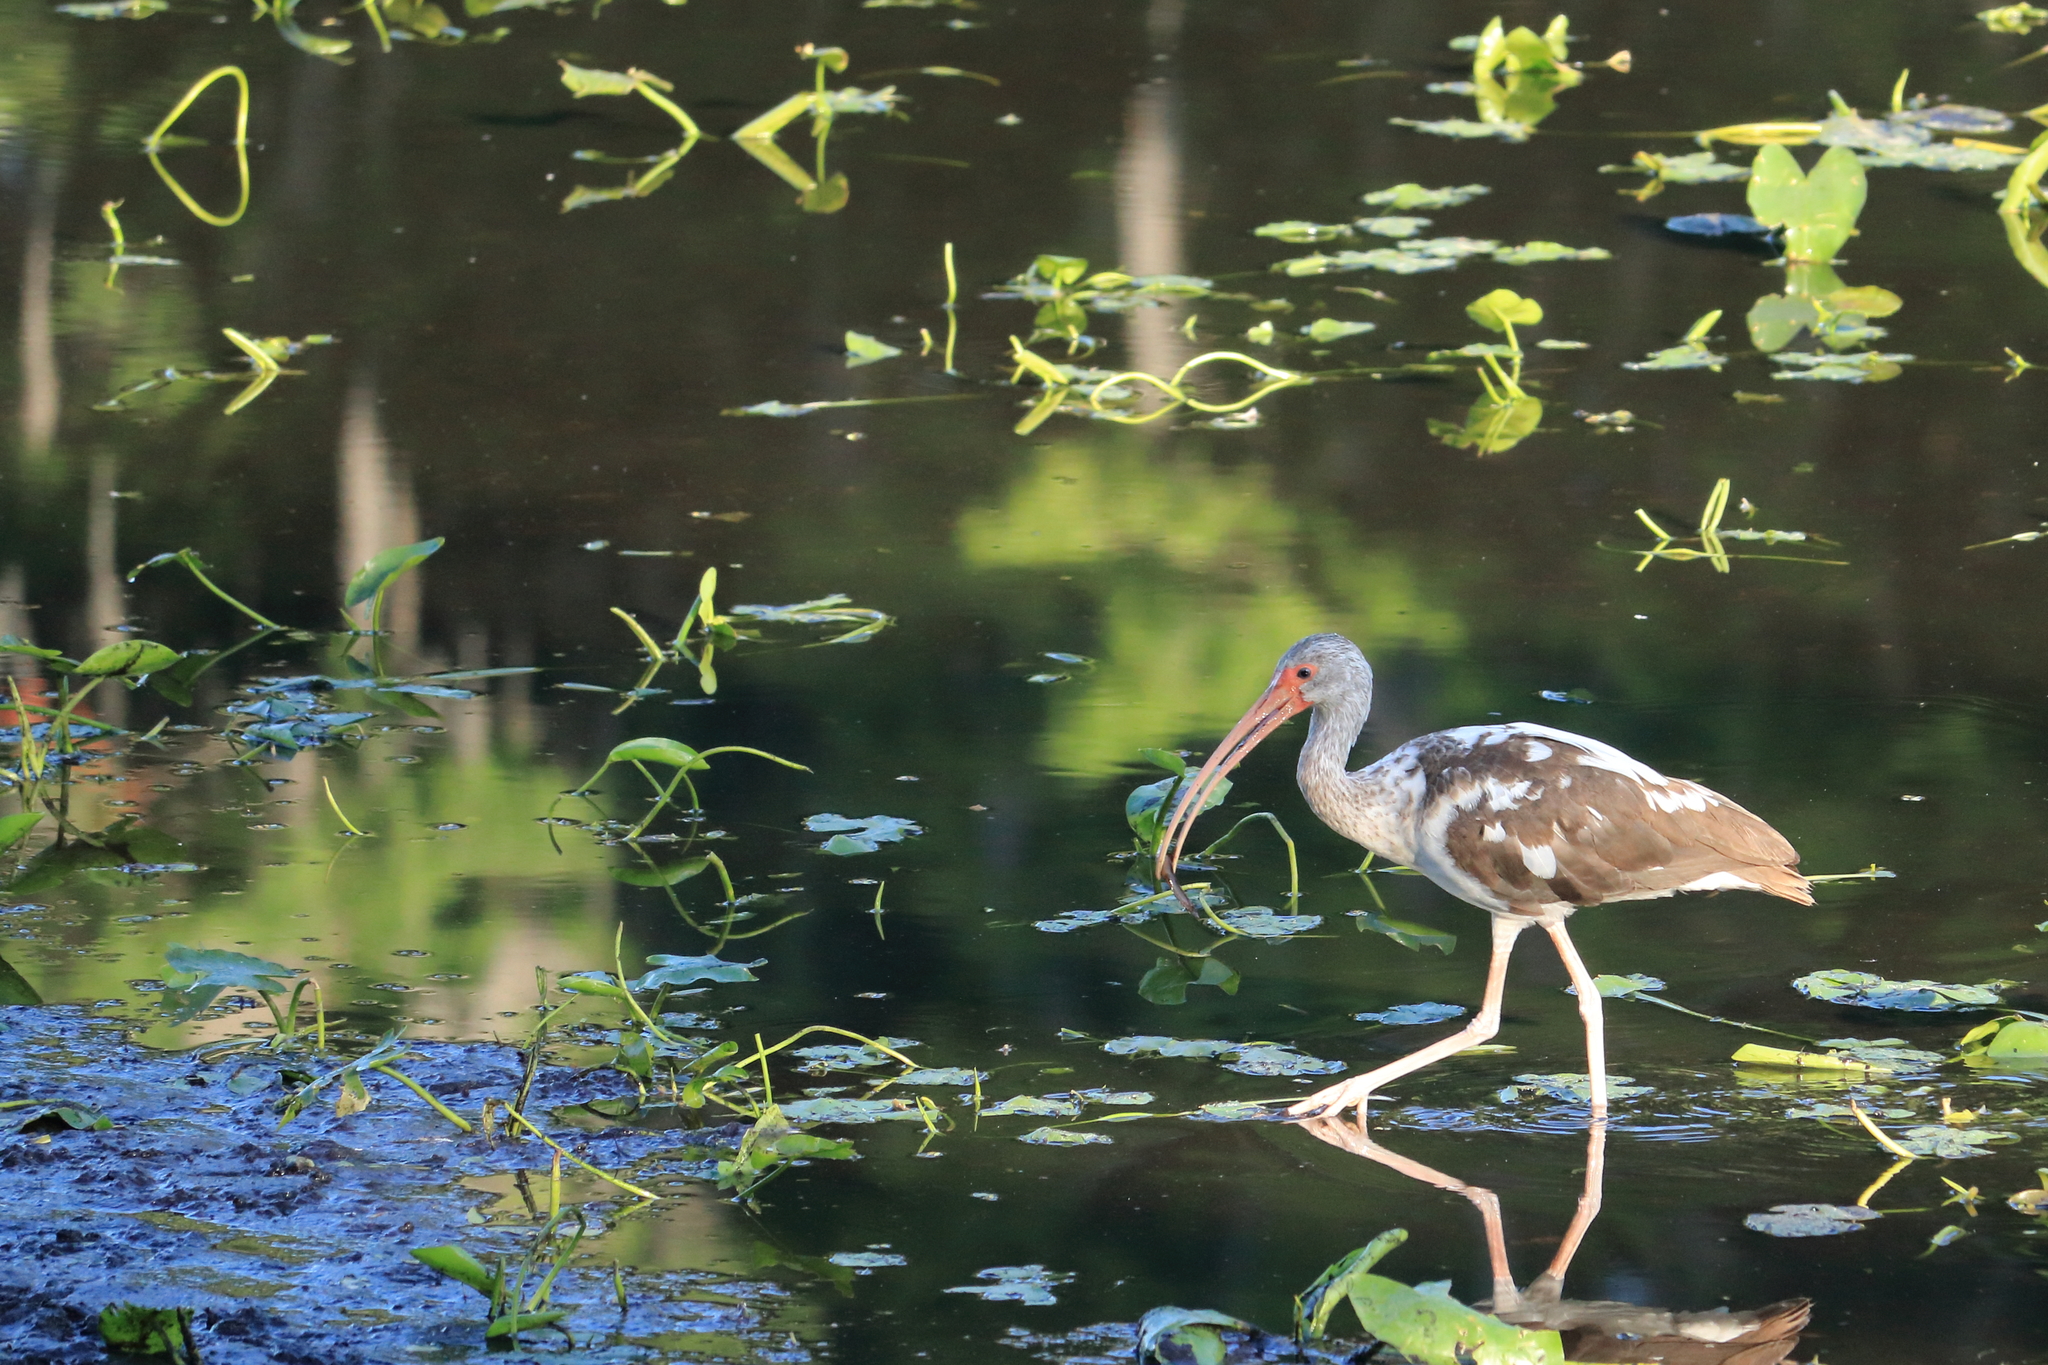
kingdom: Animalia
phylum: Chordata
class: Aves
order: Pelecaniformes
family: Threskiornithidae
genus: Eudocimus
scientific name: Eudocimus albus
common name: White ibis
